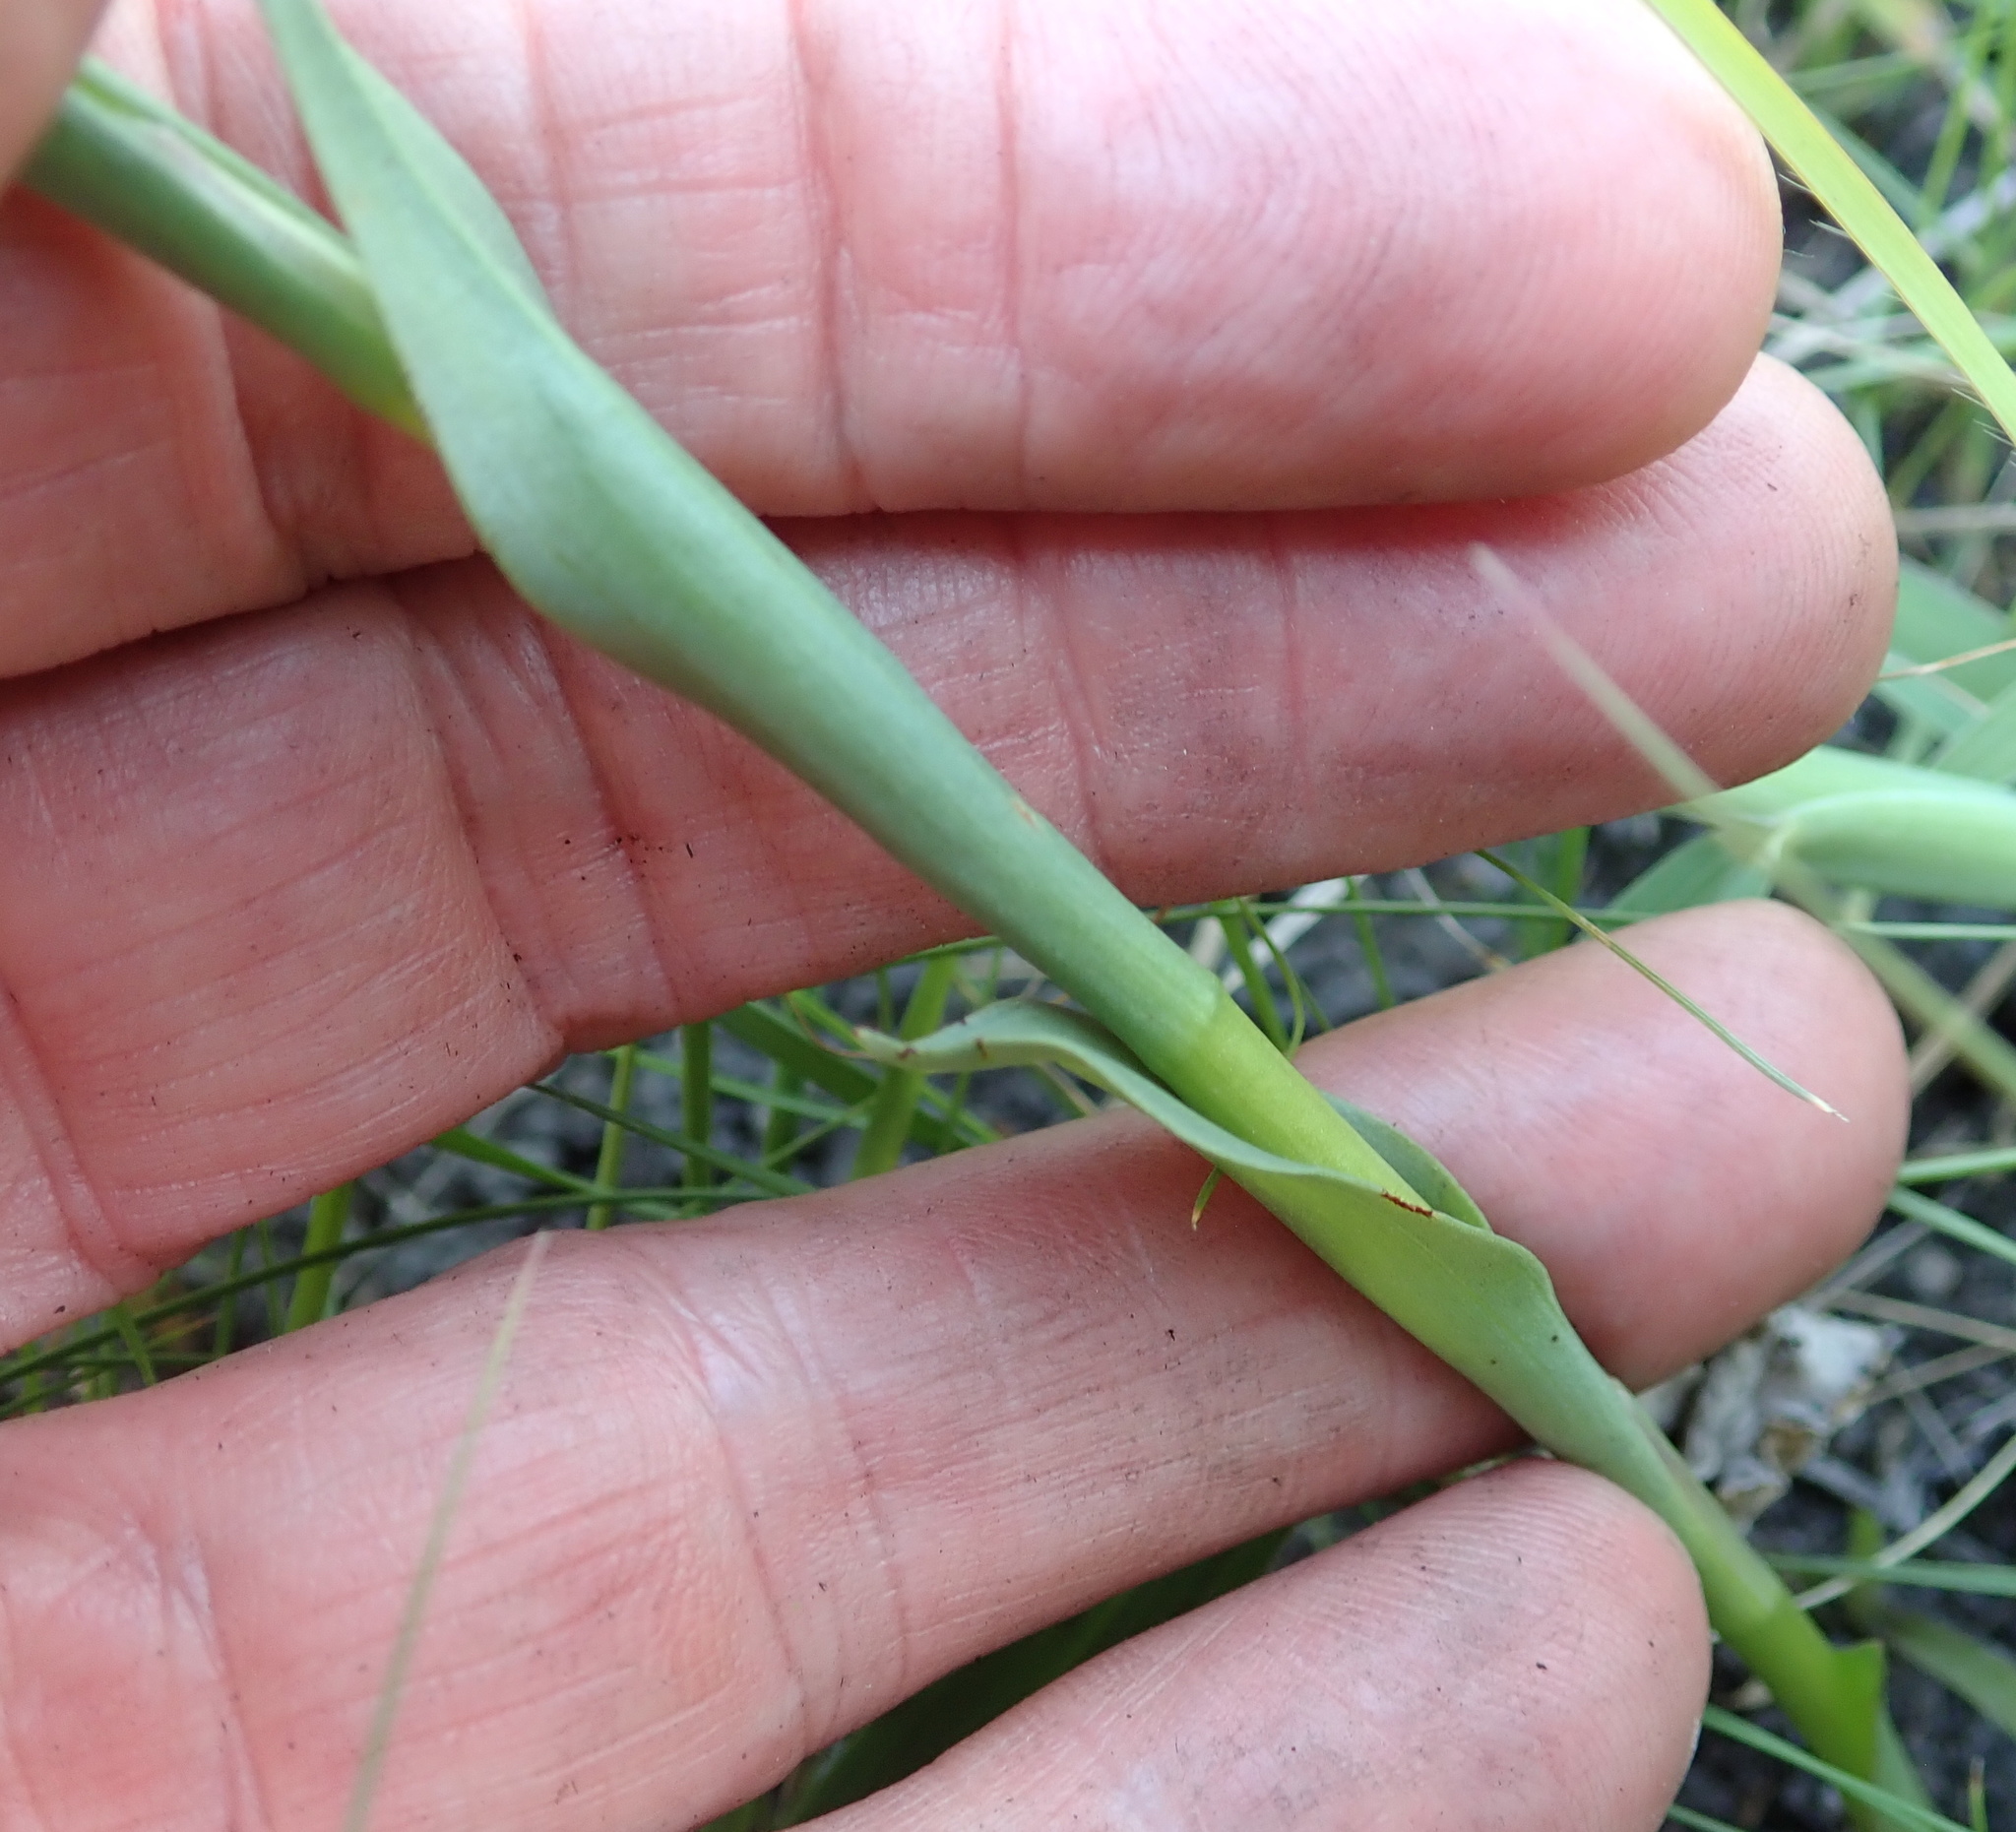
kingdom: Plantae
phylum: Tracheophyta
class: Liliopsida
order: Asparagales
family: Orchidaceae
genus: Disa
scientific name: Disa stachyoides
